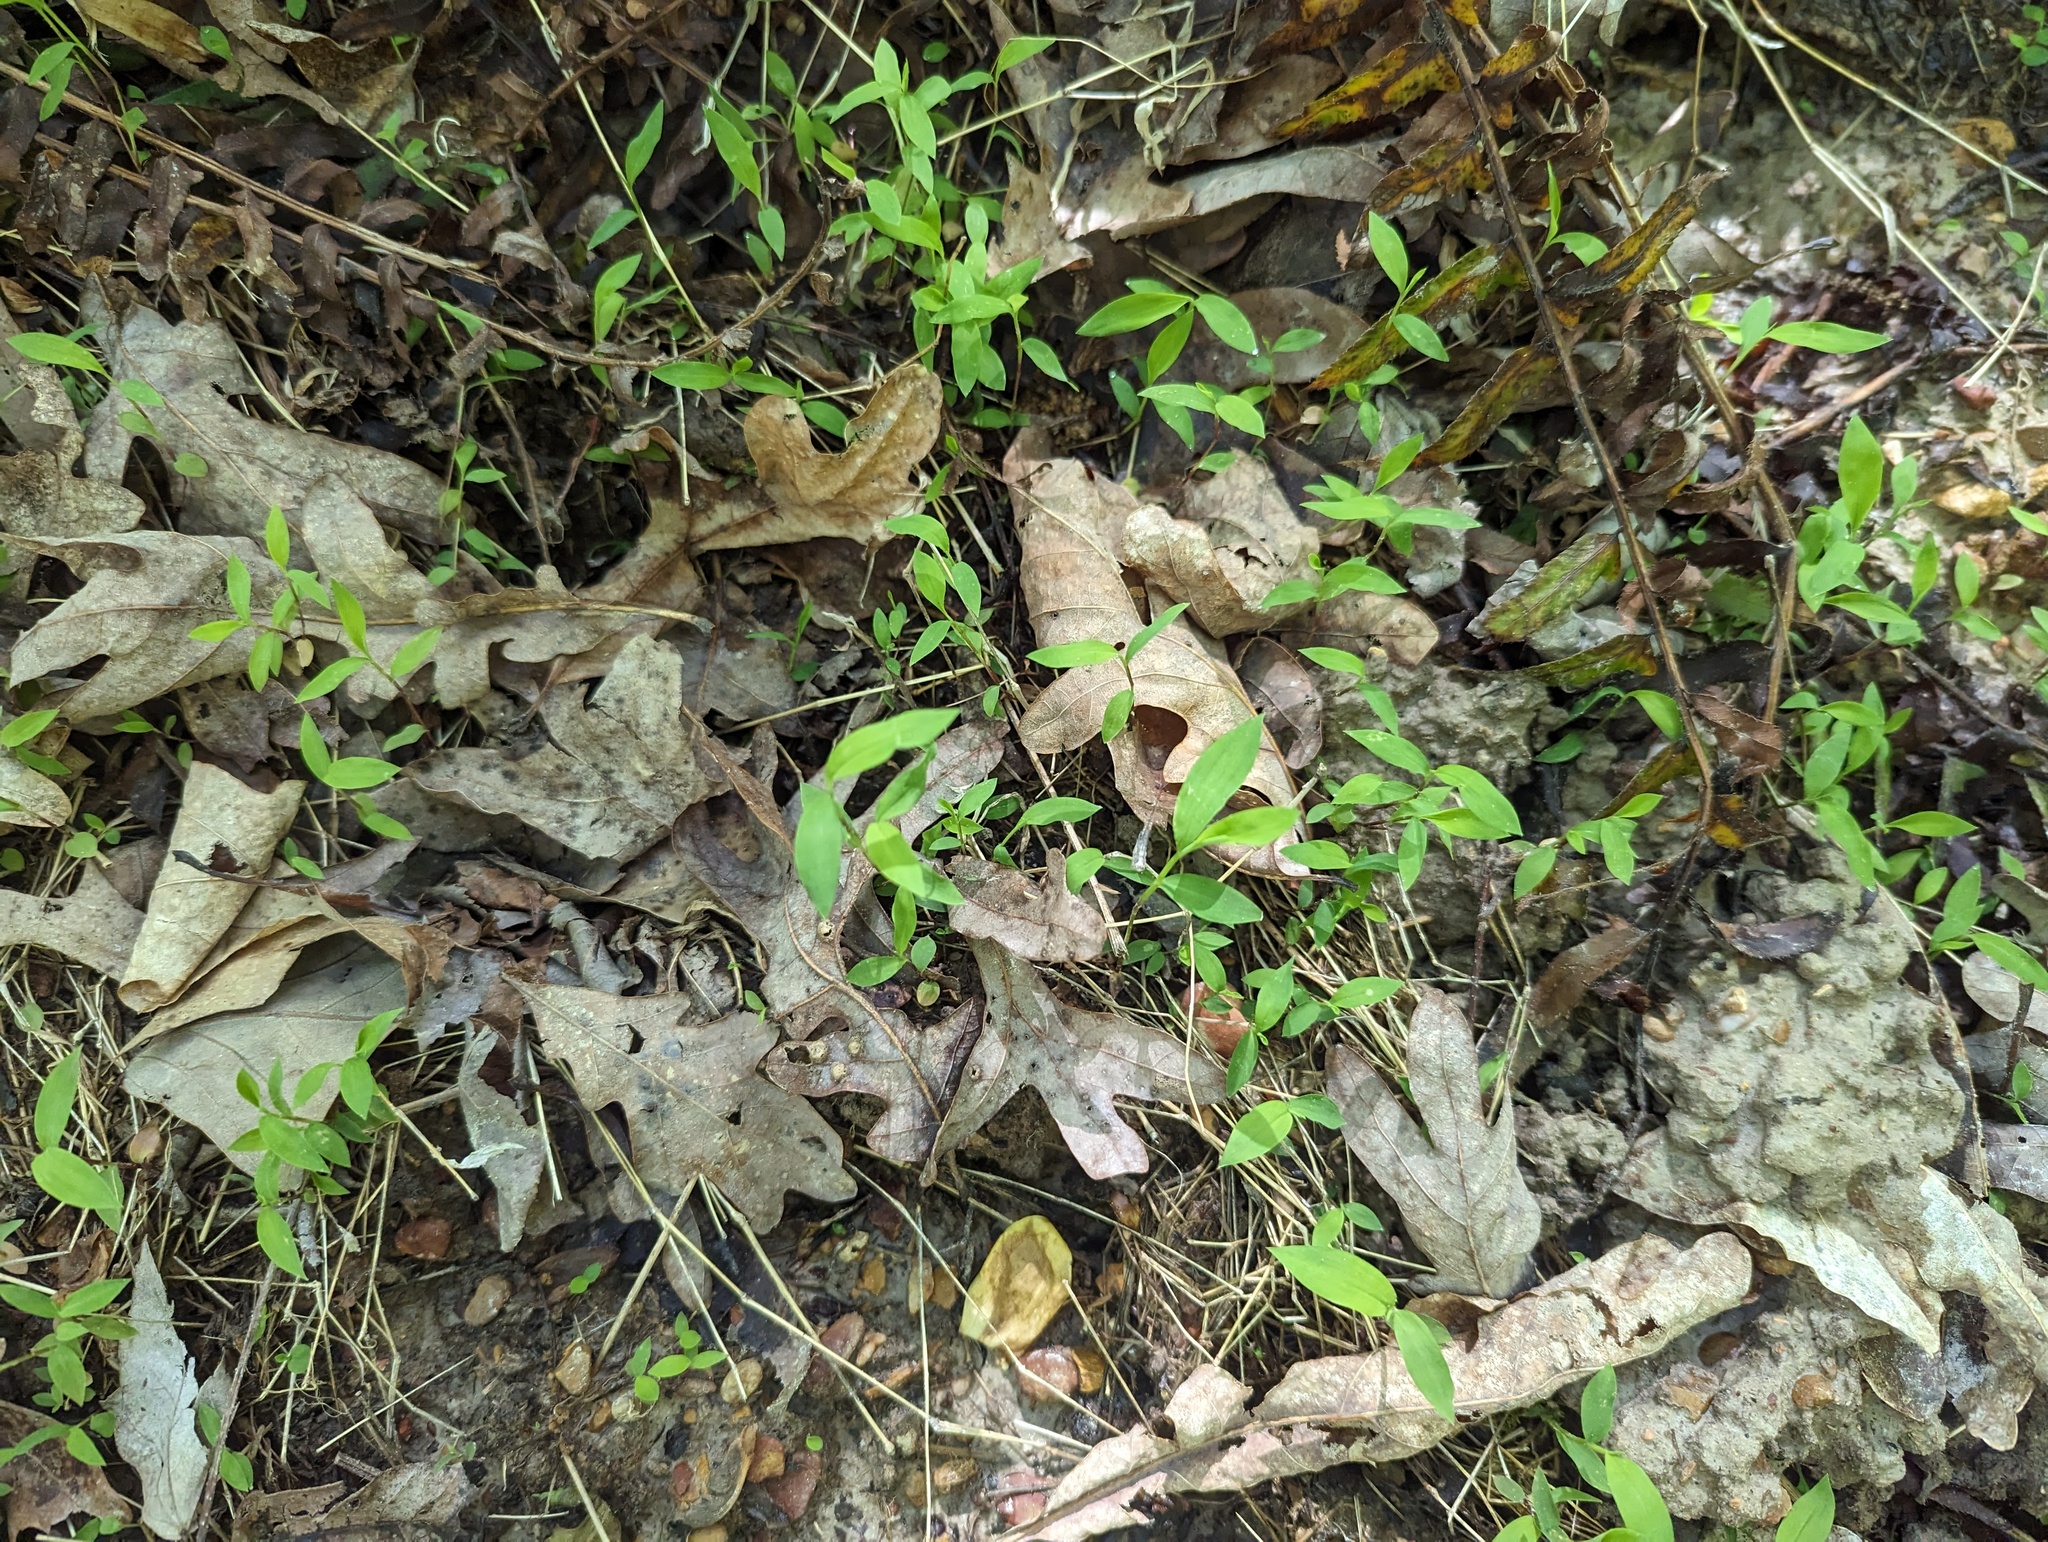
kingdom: Plantae
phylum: Tracheophyta
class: Liliopsida
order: Poales
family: Poaceae
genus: Microstegium
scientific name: Microstegium vimineum
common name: Japanese stiltgrass
